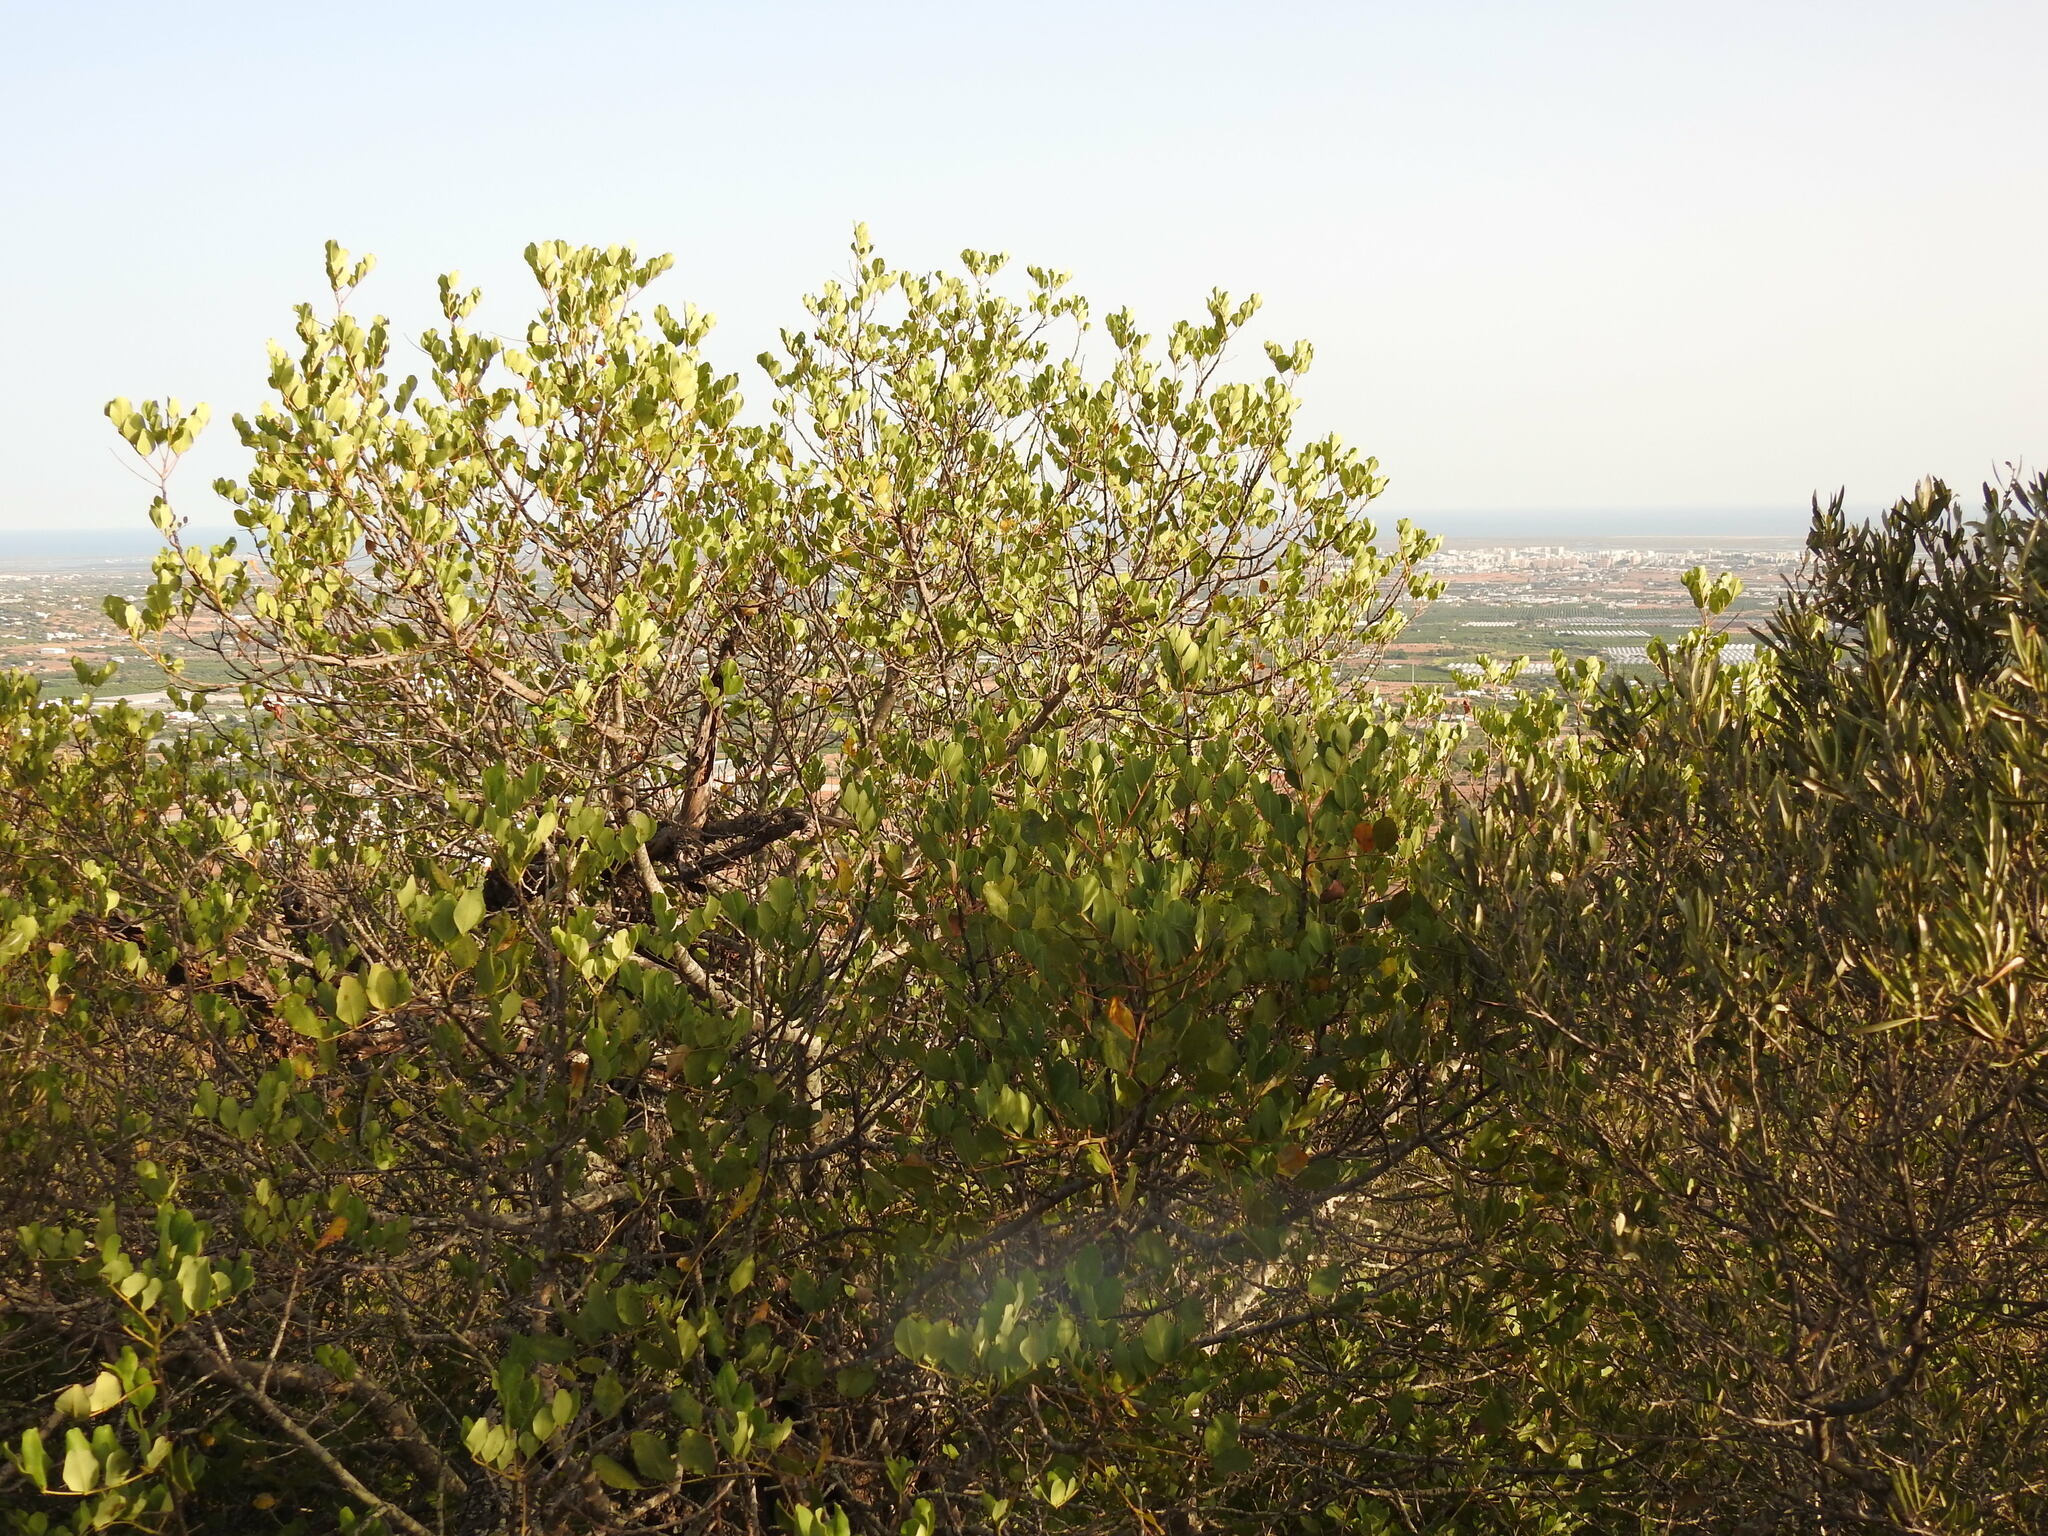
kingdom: Plantae
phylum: Tracheophyta
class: Magnoliopsida
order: Fabales
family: Fabaceae
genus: Ceratonia
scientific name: Ceratonia siliqua
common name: Carob
